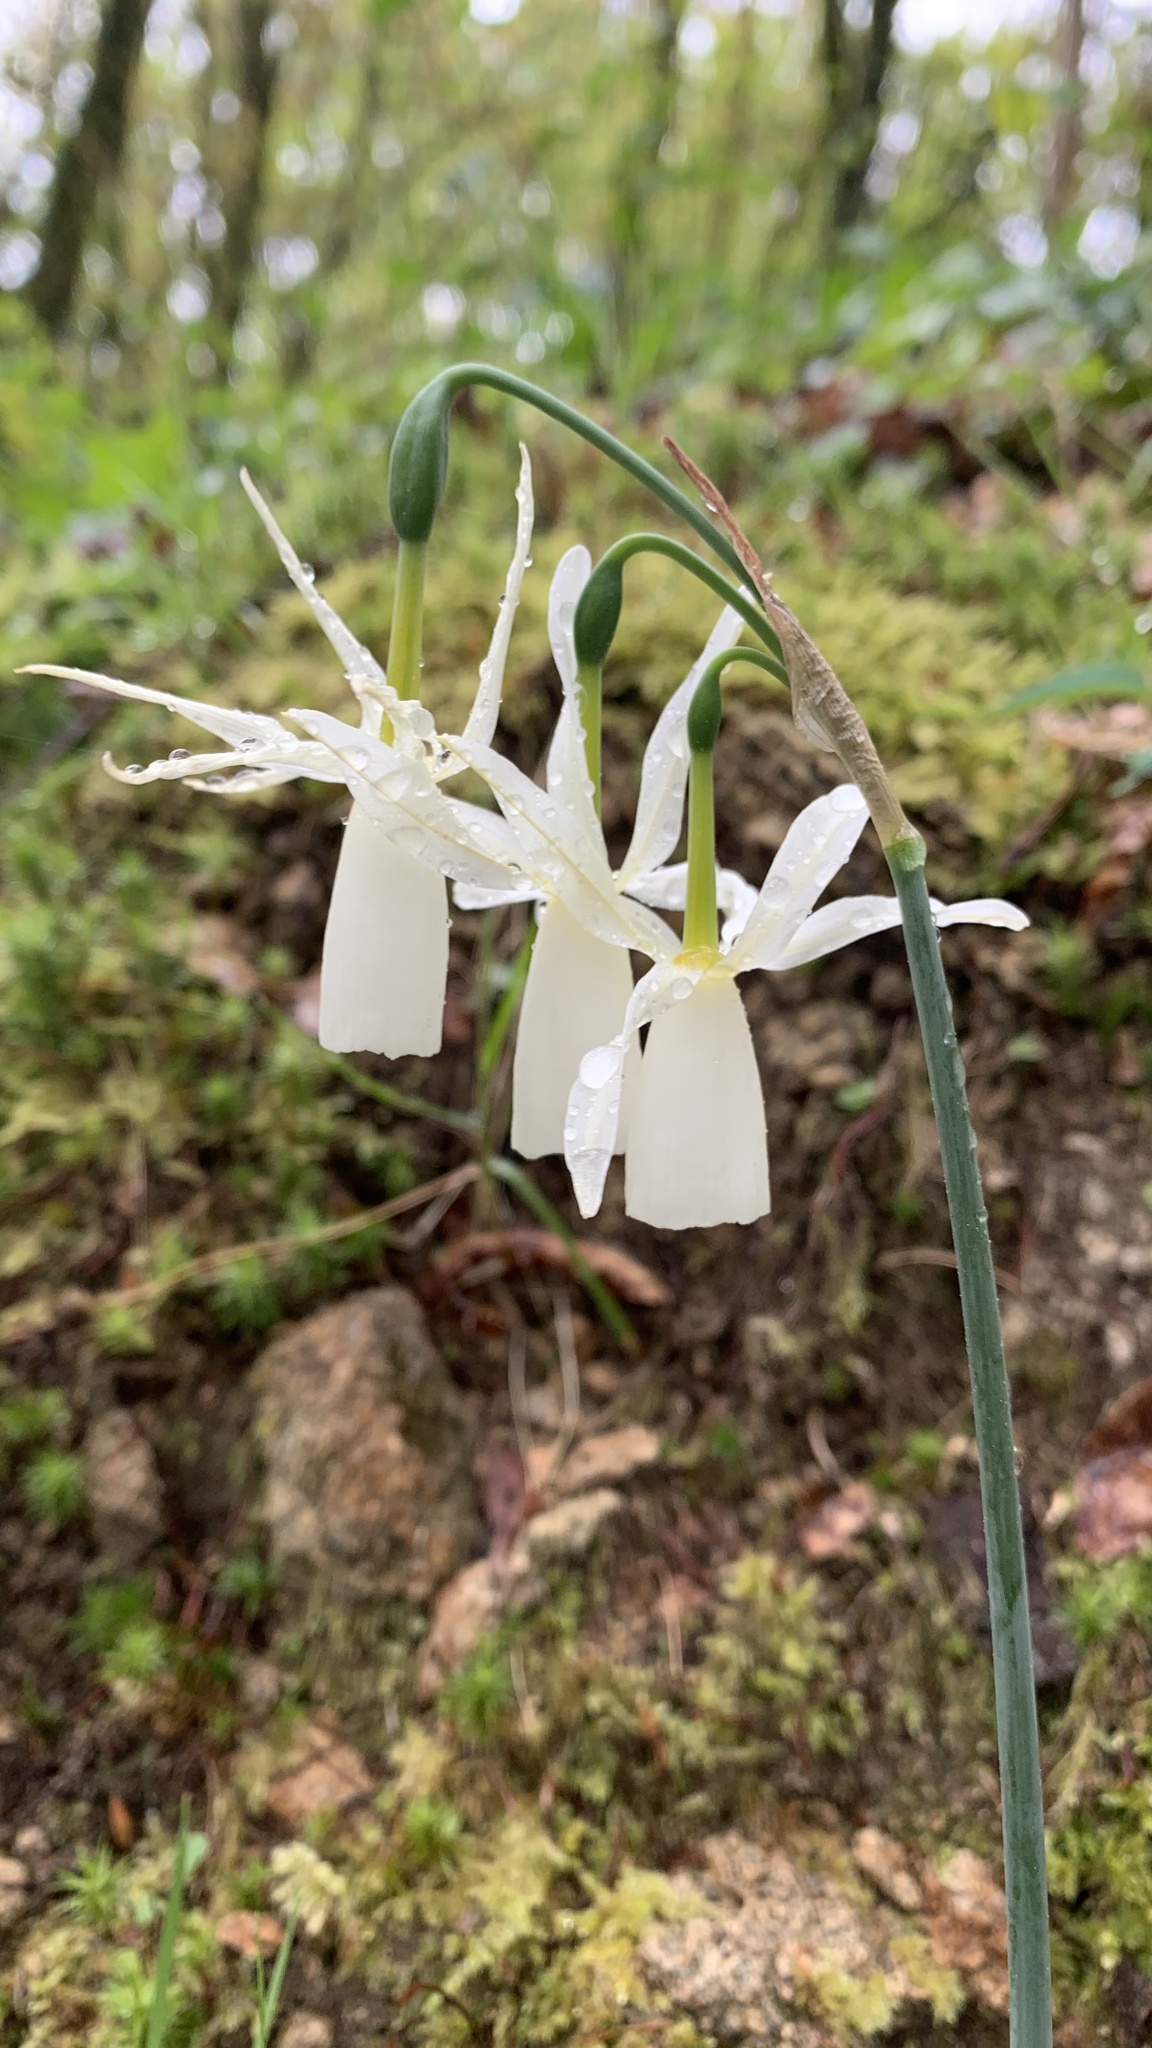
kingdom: Plantae
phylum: Tracheophyta
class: Liliopsida
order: Asparagales
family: Amaryllidaceae
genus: Narcissus
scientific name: Narcissus triandrus
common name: Angel's-tears
